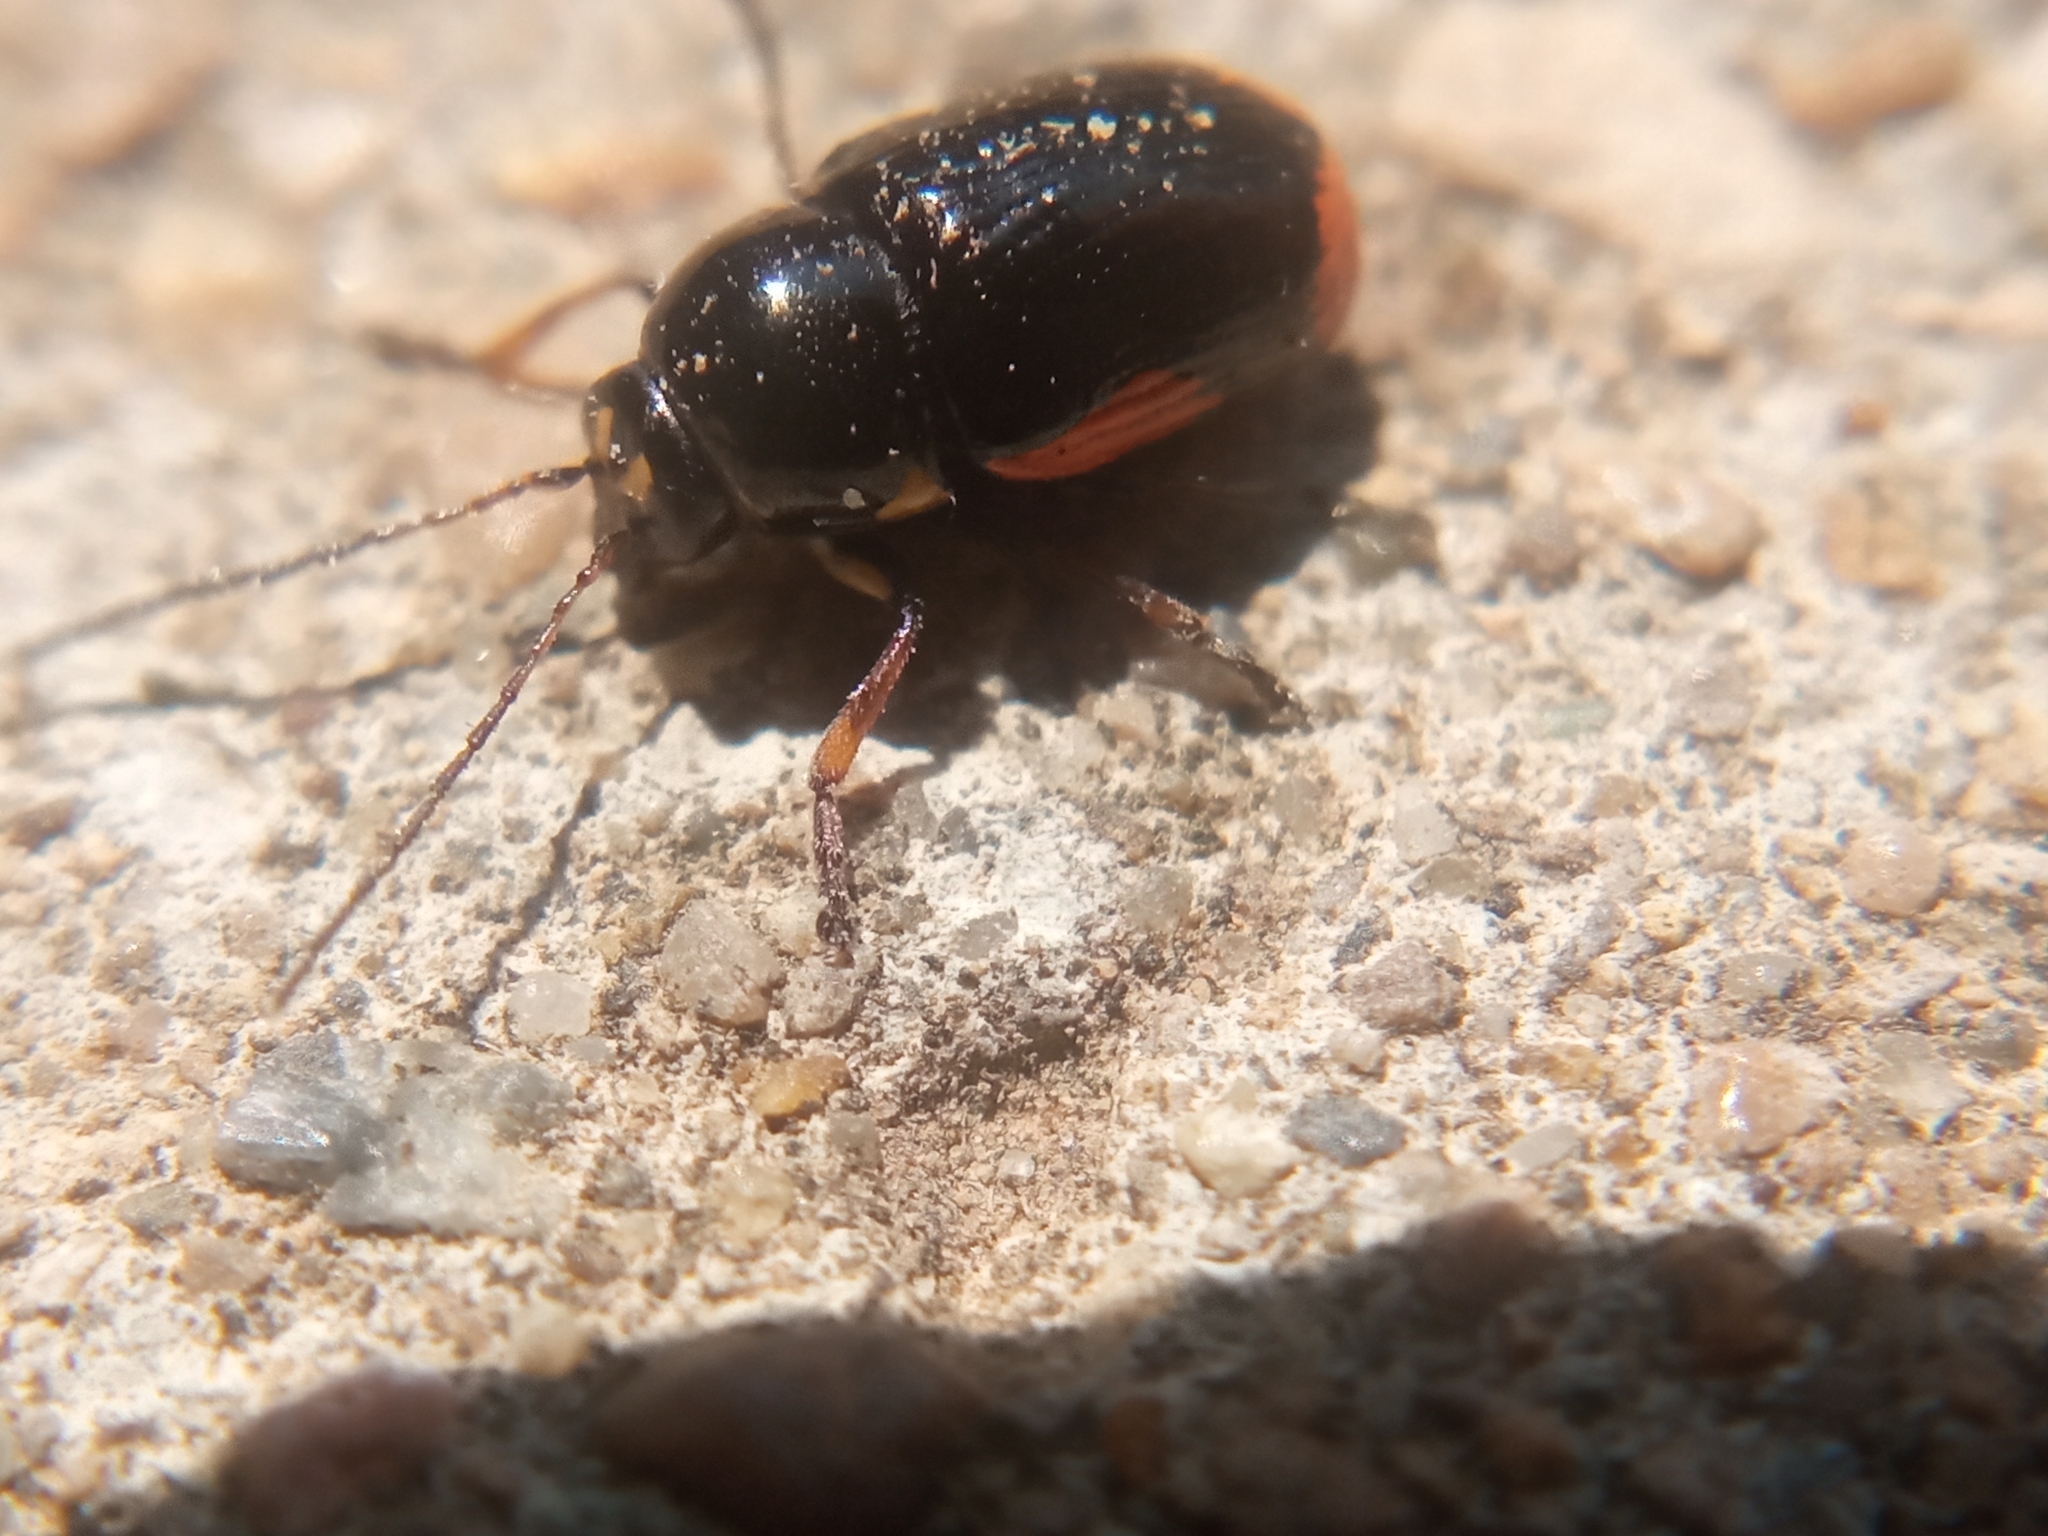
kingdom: Animalia
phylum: Arthropoda
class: Insecta
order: Coleoptera
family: Chrysomelidae
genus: Cryptocephalus
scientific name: Cryptocephalus moraei
